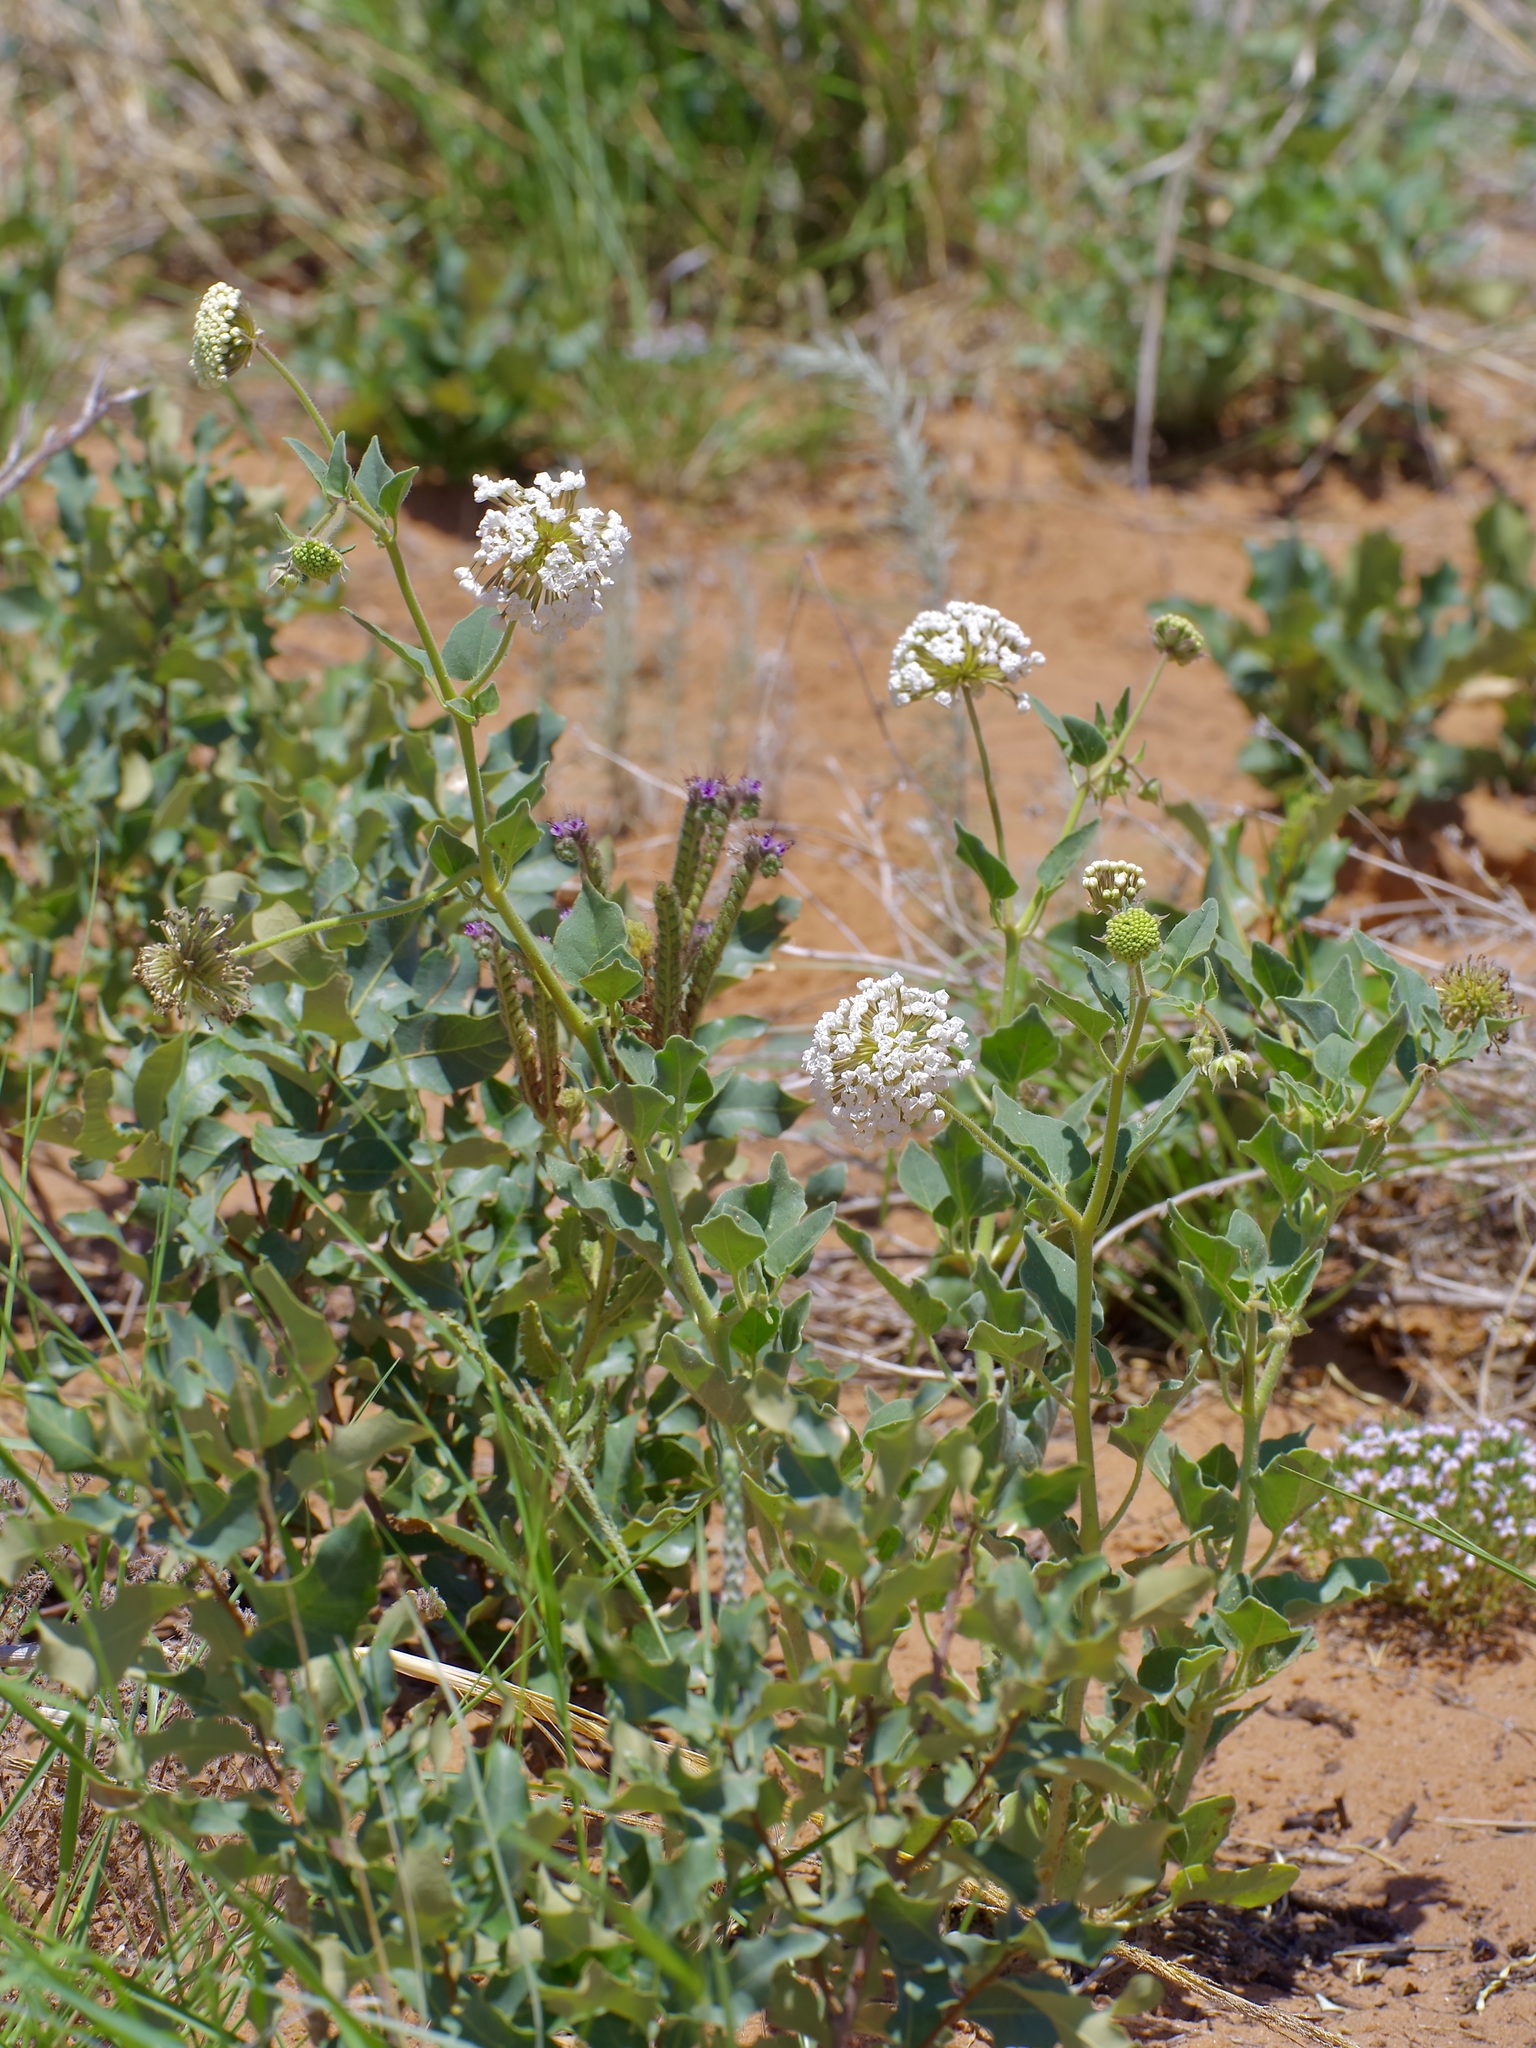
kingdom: Plantae
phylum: Tracheophyta
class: Magnoliopsida
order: Caryophyllales
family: Nyctaginaceae
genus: Abronia
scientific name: Abronia fragrans
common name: Fragrant sand-verbena
